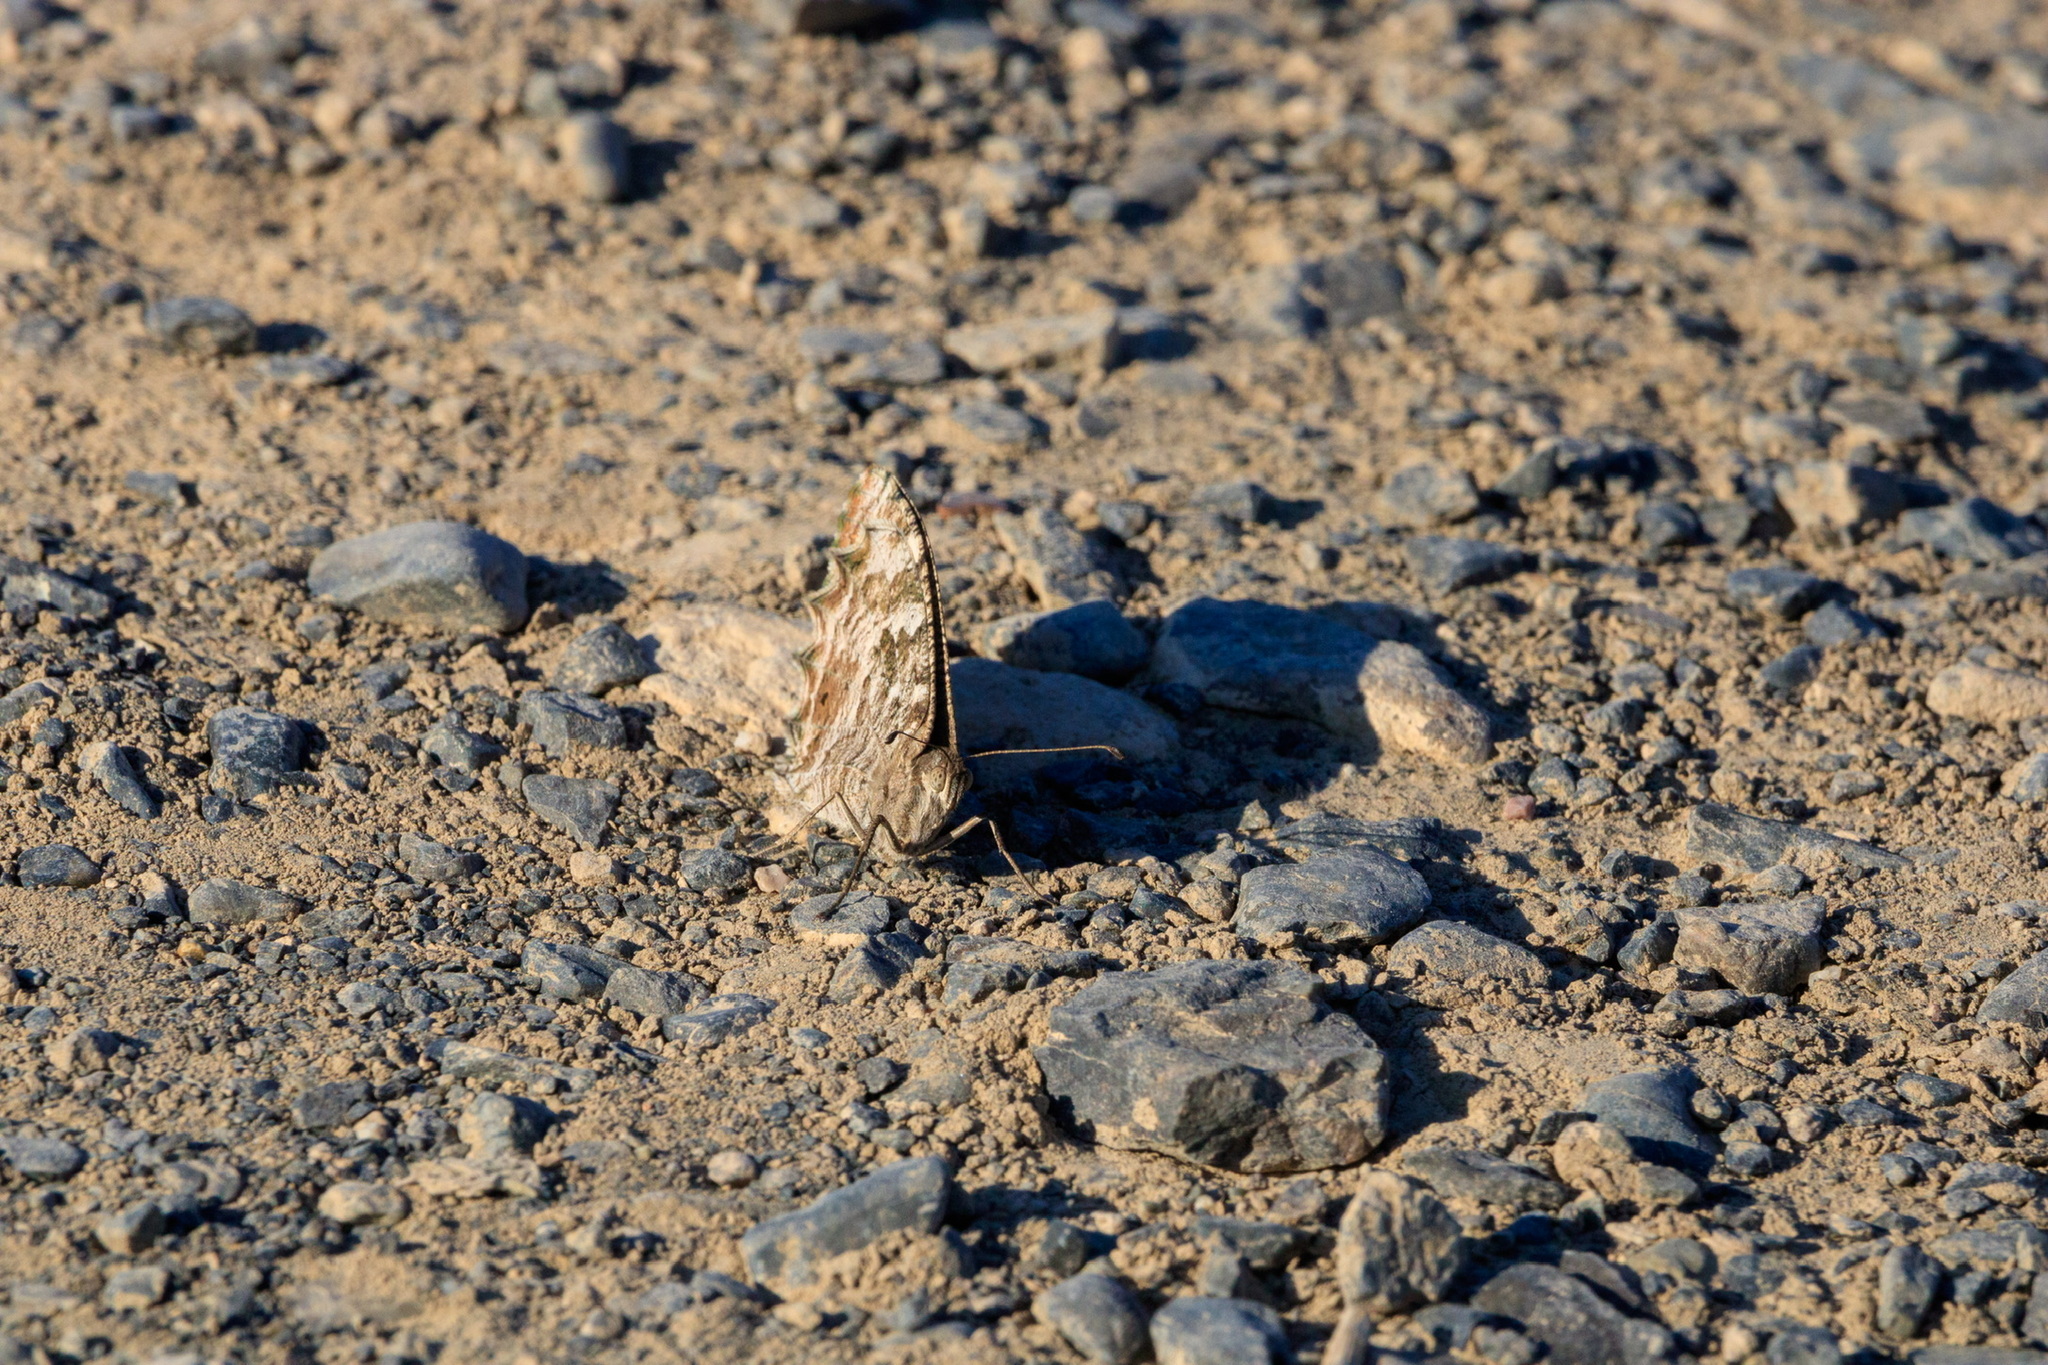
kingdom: Animalia
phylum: Arthropoda
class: Insecta
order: Lepidoptera
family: Nymphalidae
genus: Satyrus
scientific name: Satyrus Chazara enervata
